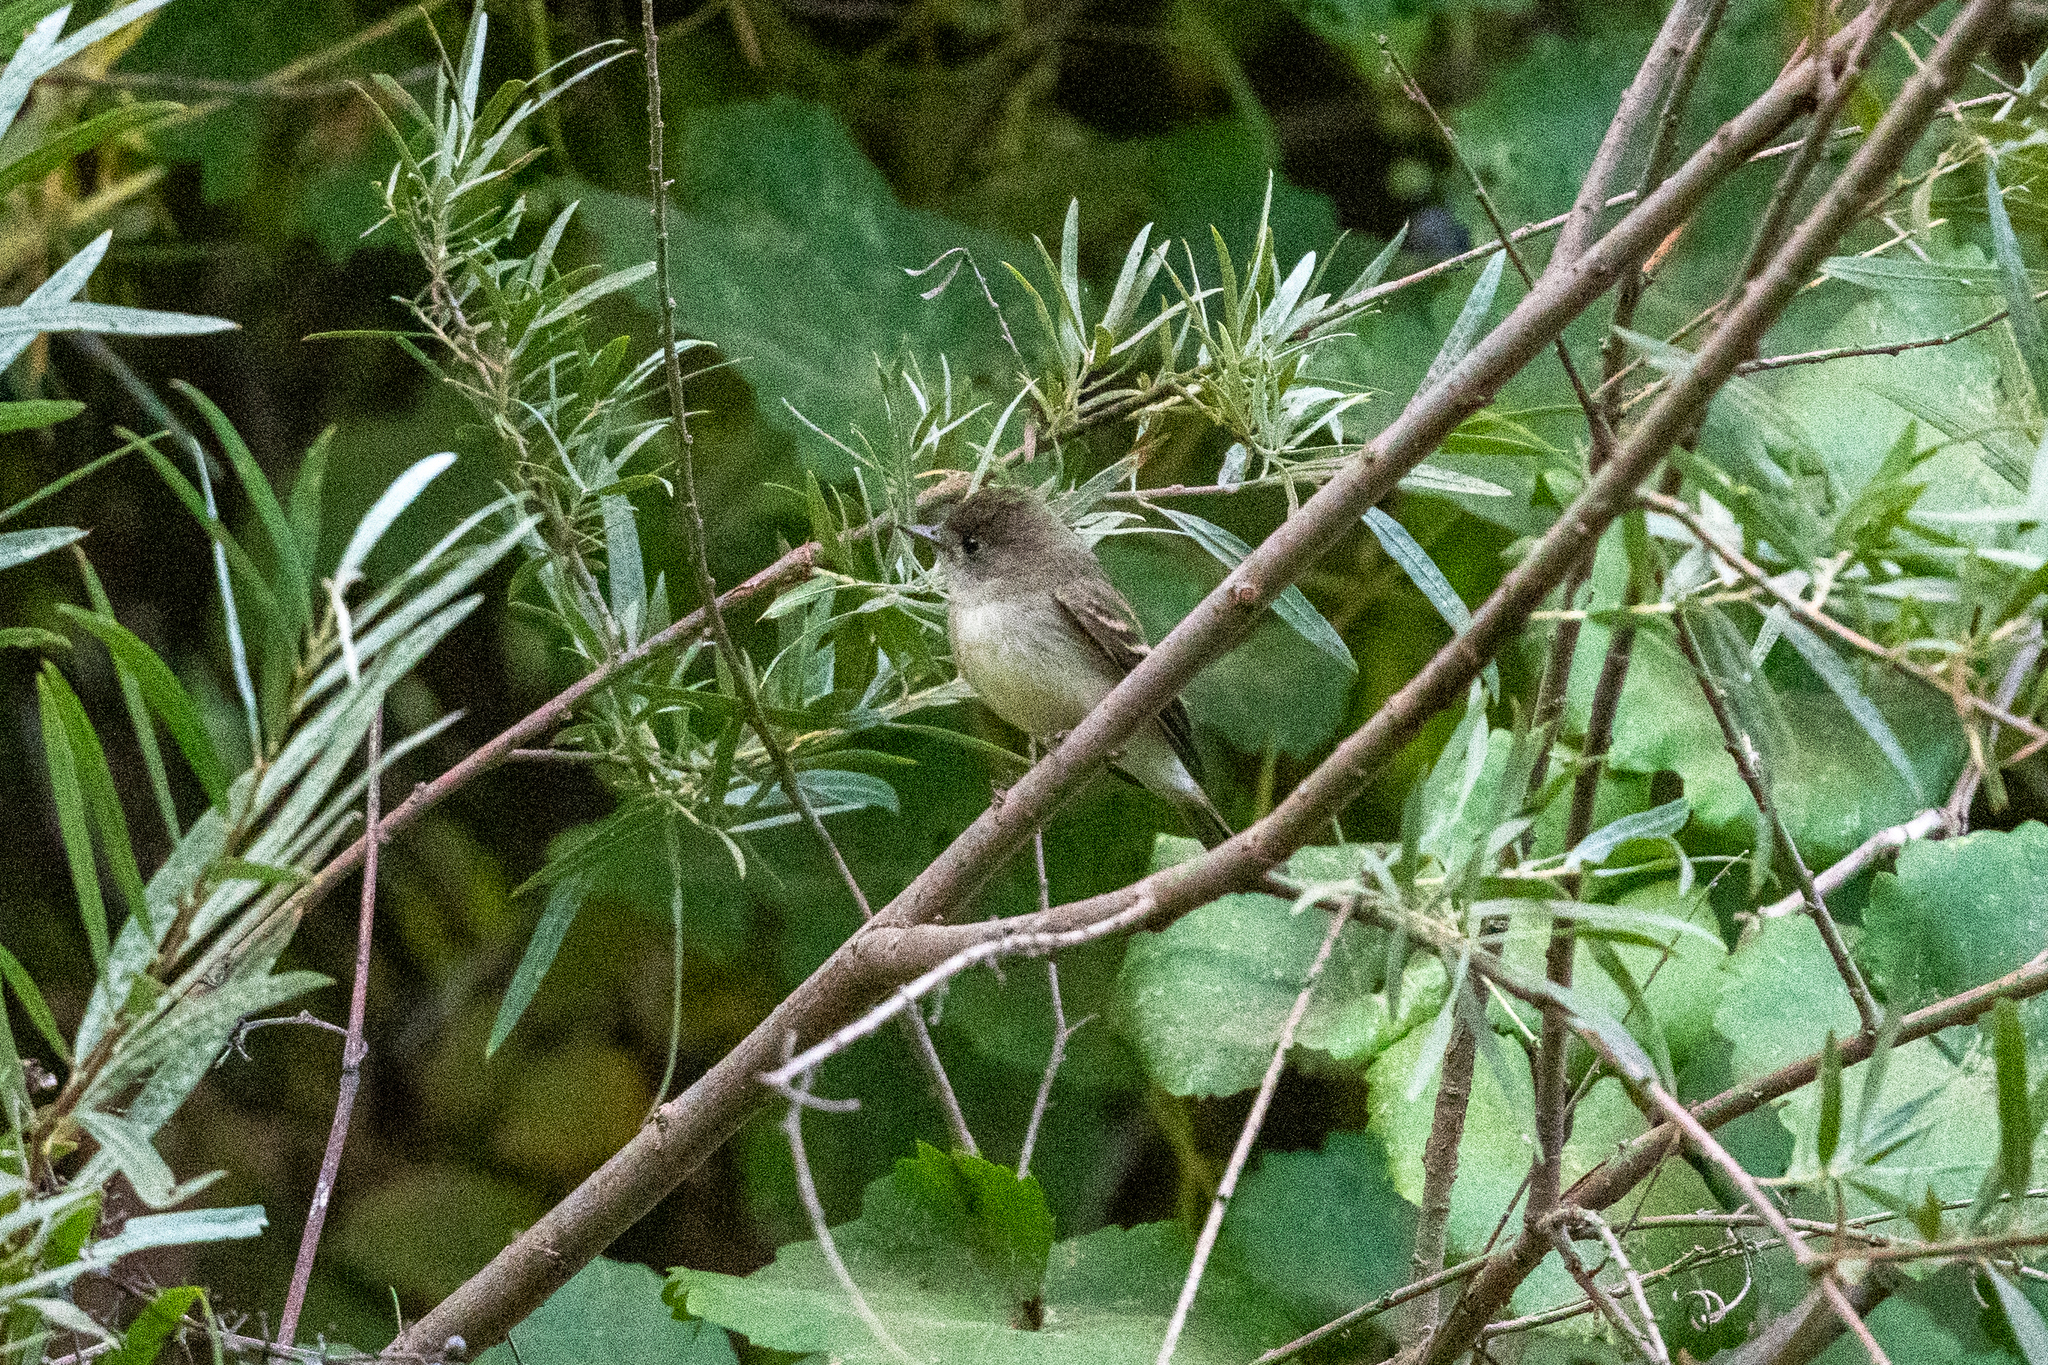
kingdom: Animalia
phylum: Chordata
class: Aves
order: Passeriformes
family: Tyrannidae
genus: Empidonax
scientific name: Empidonax traillii
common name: Willow flycatcher
